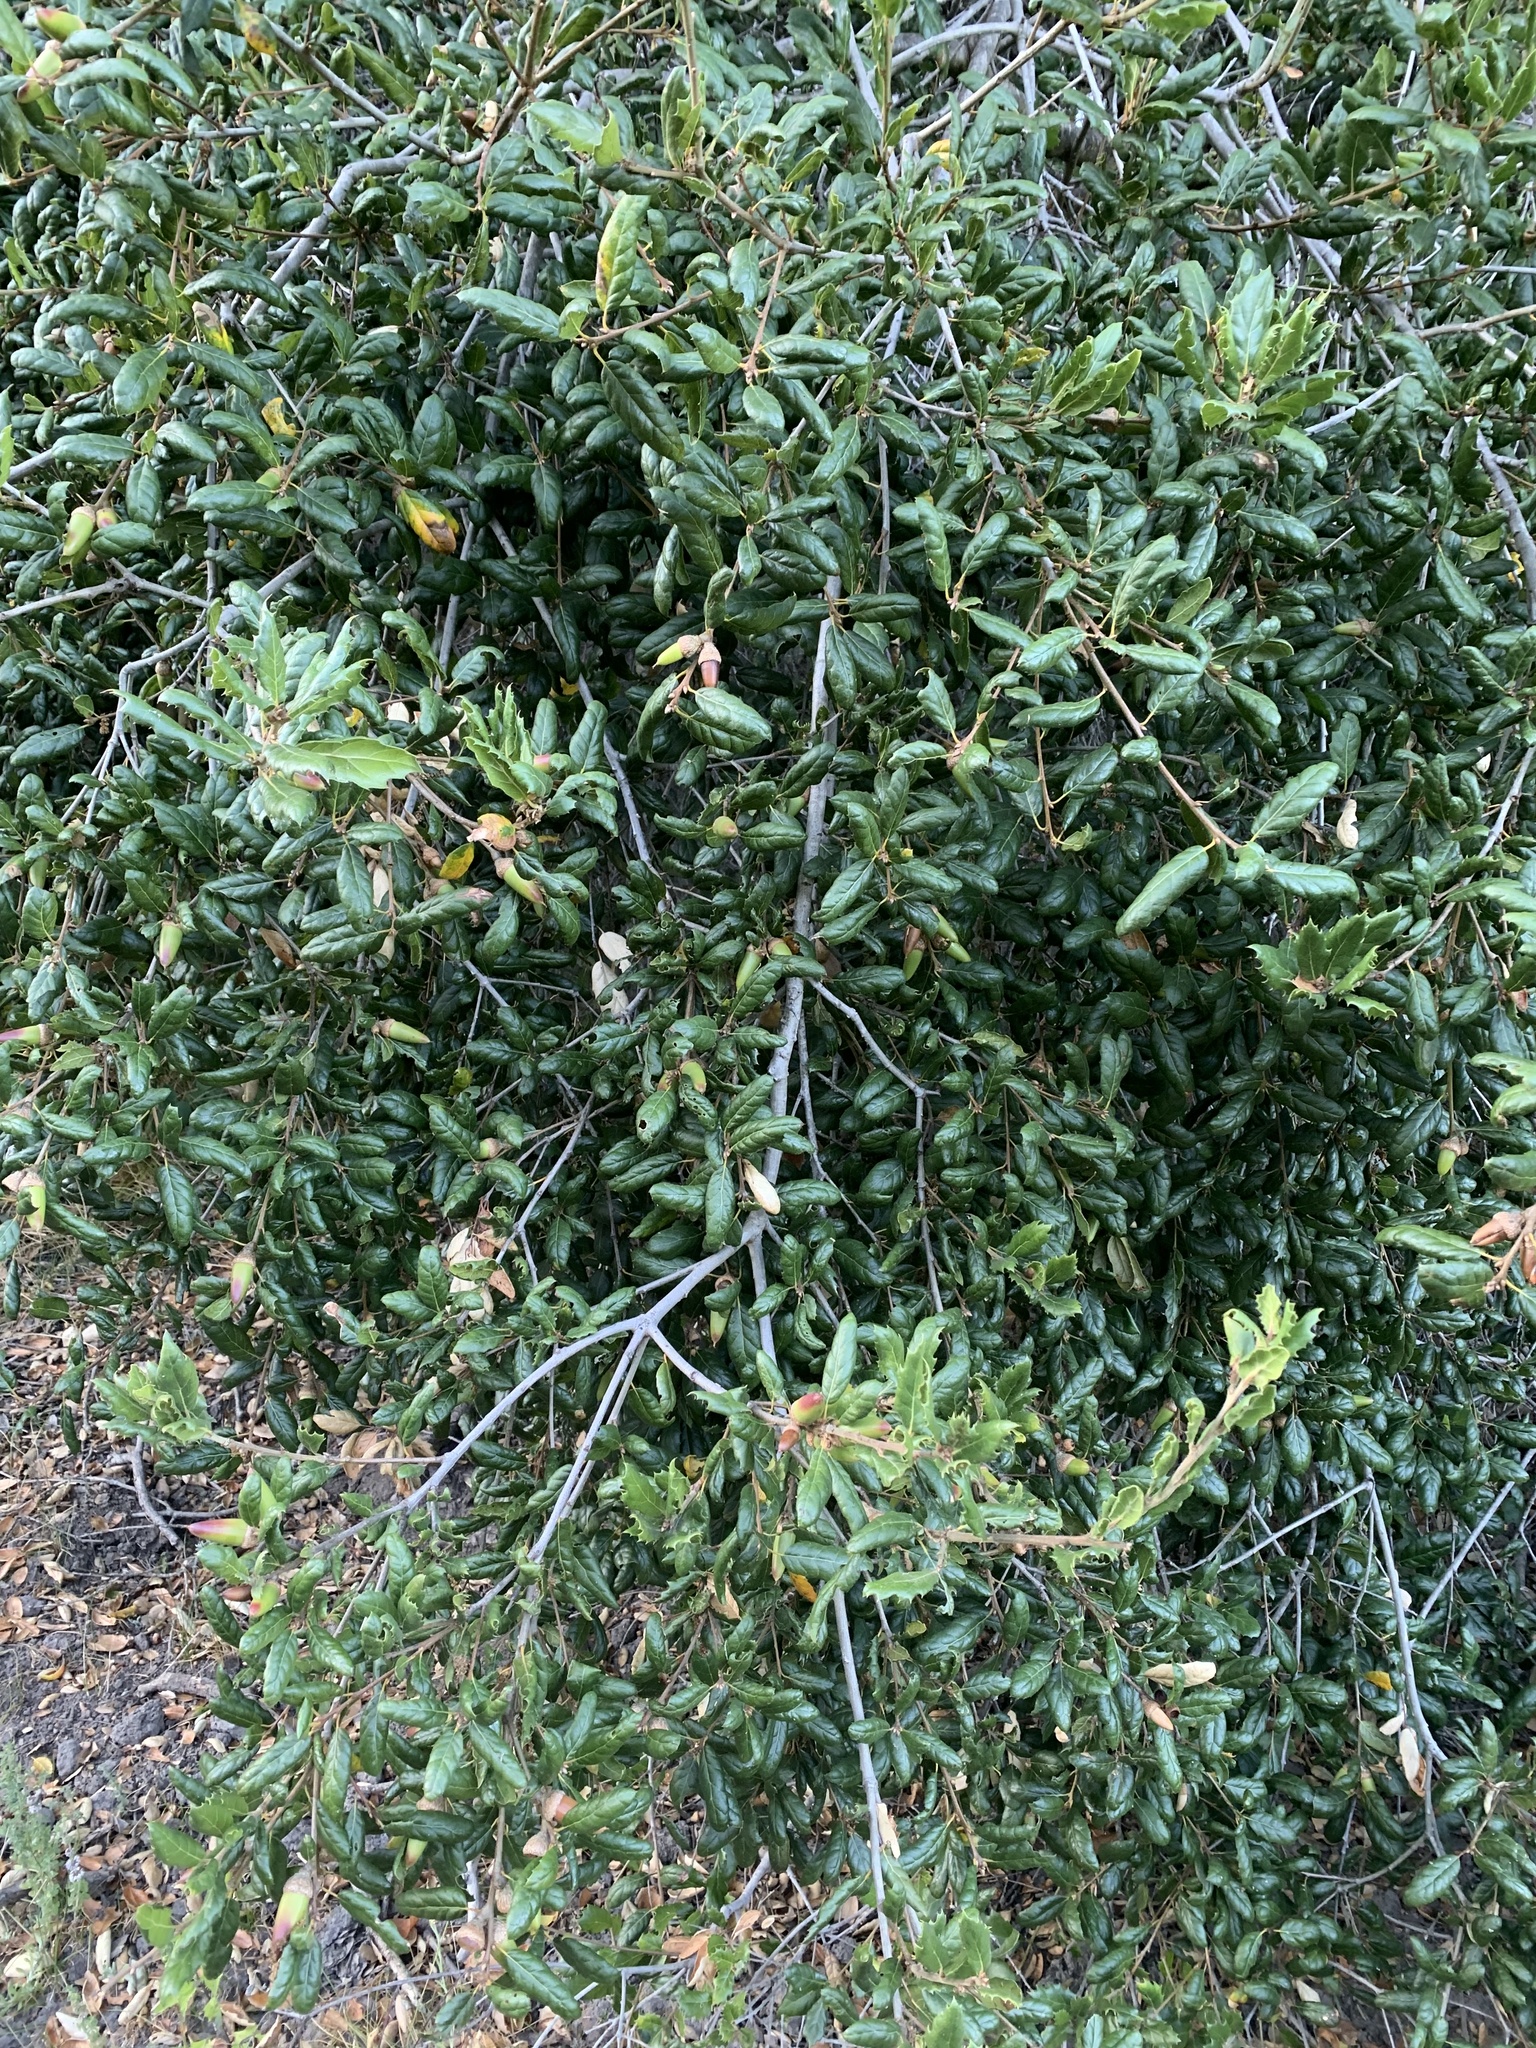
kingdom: Plantae
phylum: Tracheophyta
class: Magnoliopsida
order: Fagales
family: Fagaceae
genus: Quercus
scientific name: Quercus agrifolia
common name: California live oak
